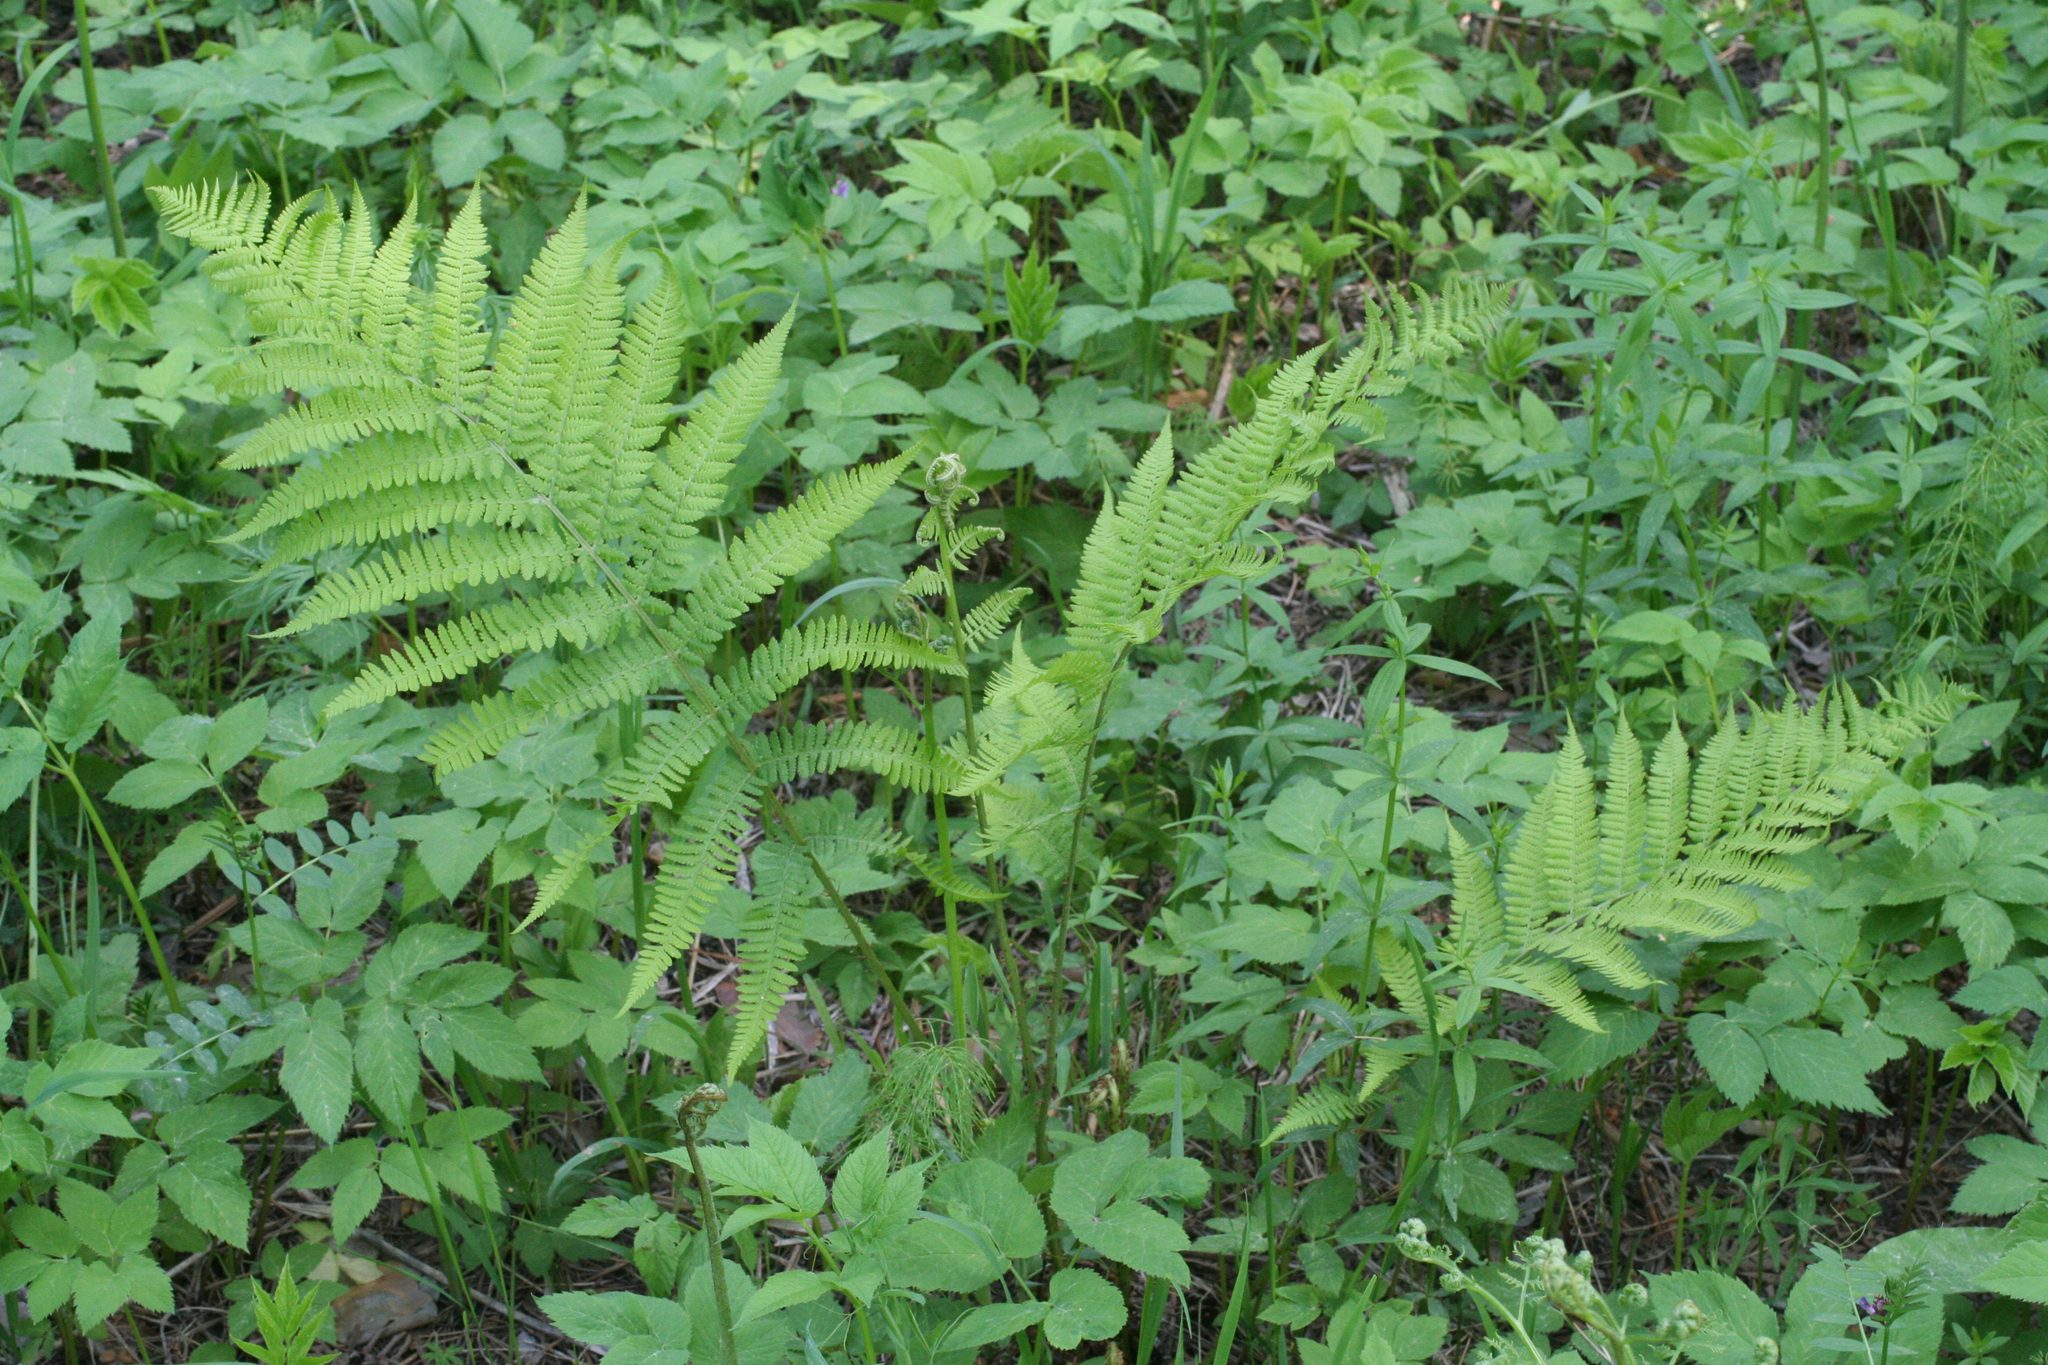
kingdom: Plantae
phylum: Tracheophyta
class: Polypodiopsida
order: Polypodiales
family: Athyriaceae
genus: Athyrium
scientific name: Athyrium filix-femina
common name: Lady fern
